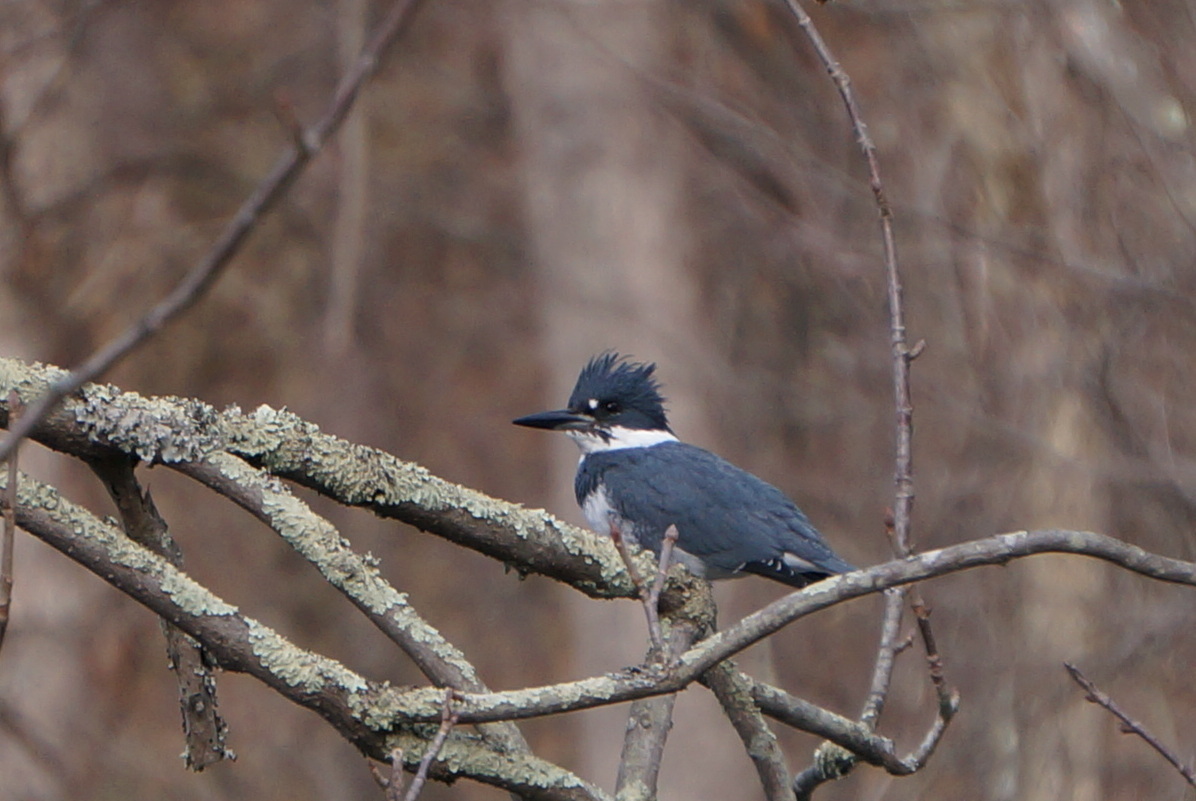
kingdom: Animalia
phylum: Chordata
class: Aves
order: Coraciiformes
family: Alcedinidae
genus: Megaceryle
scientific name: Megaceryle alcyon
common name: Belted kingfisher
